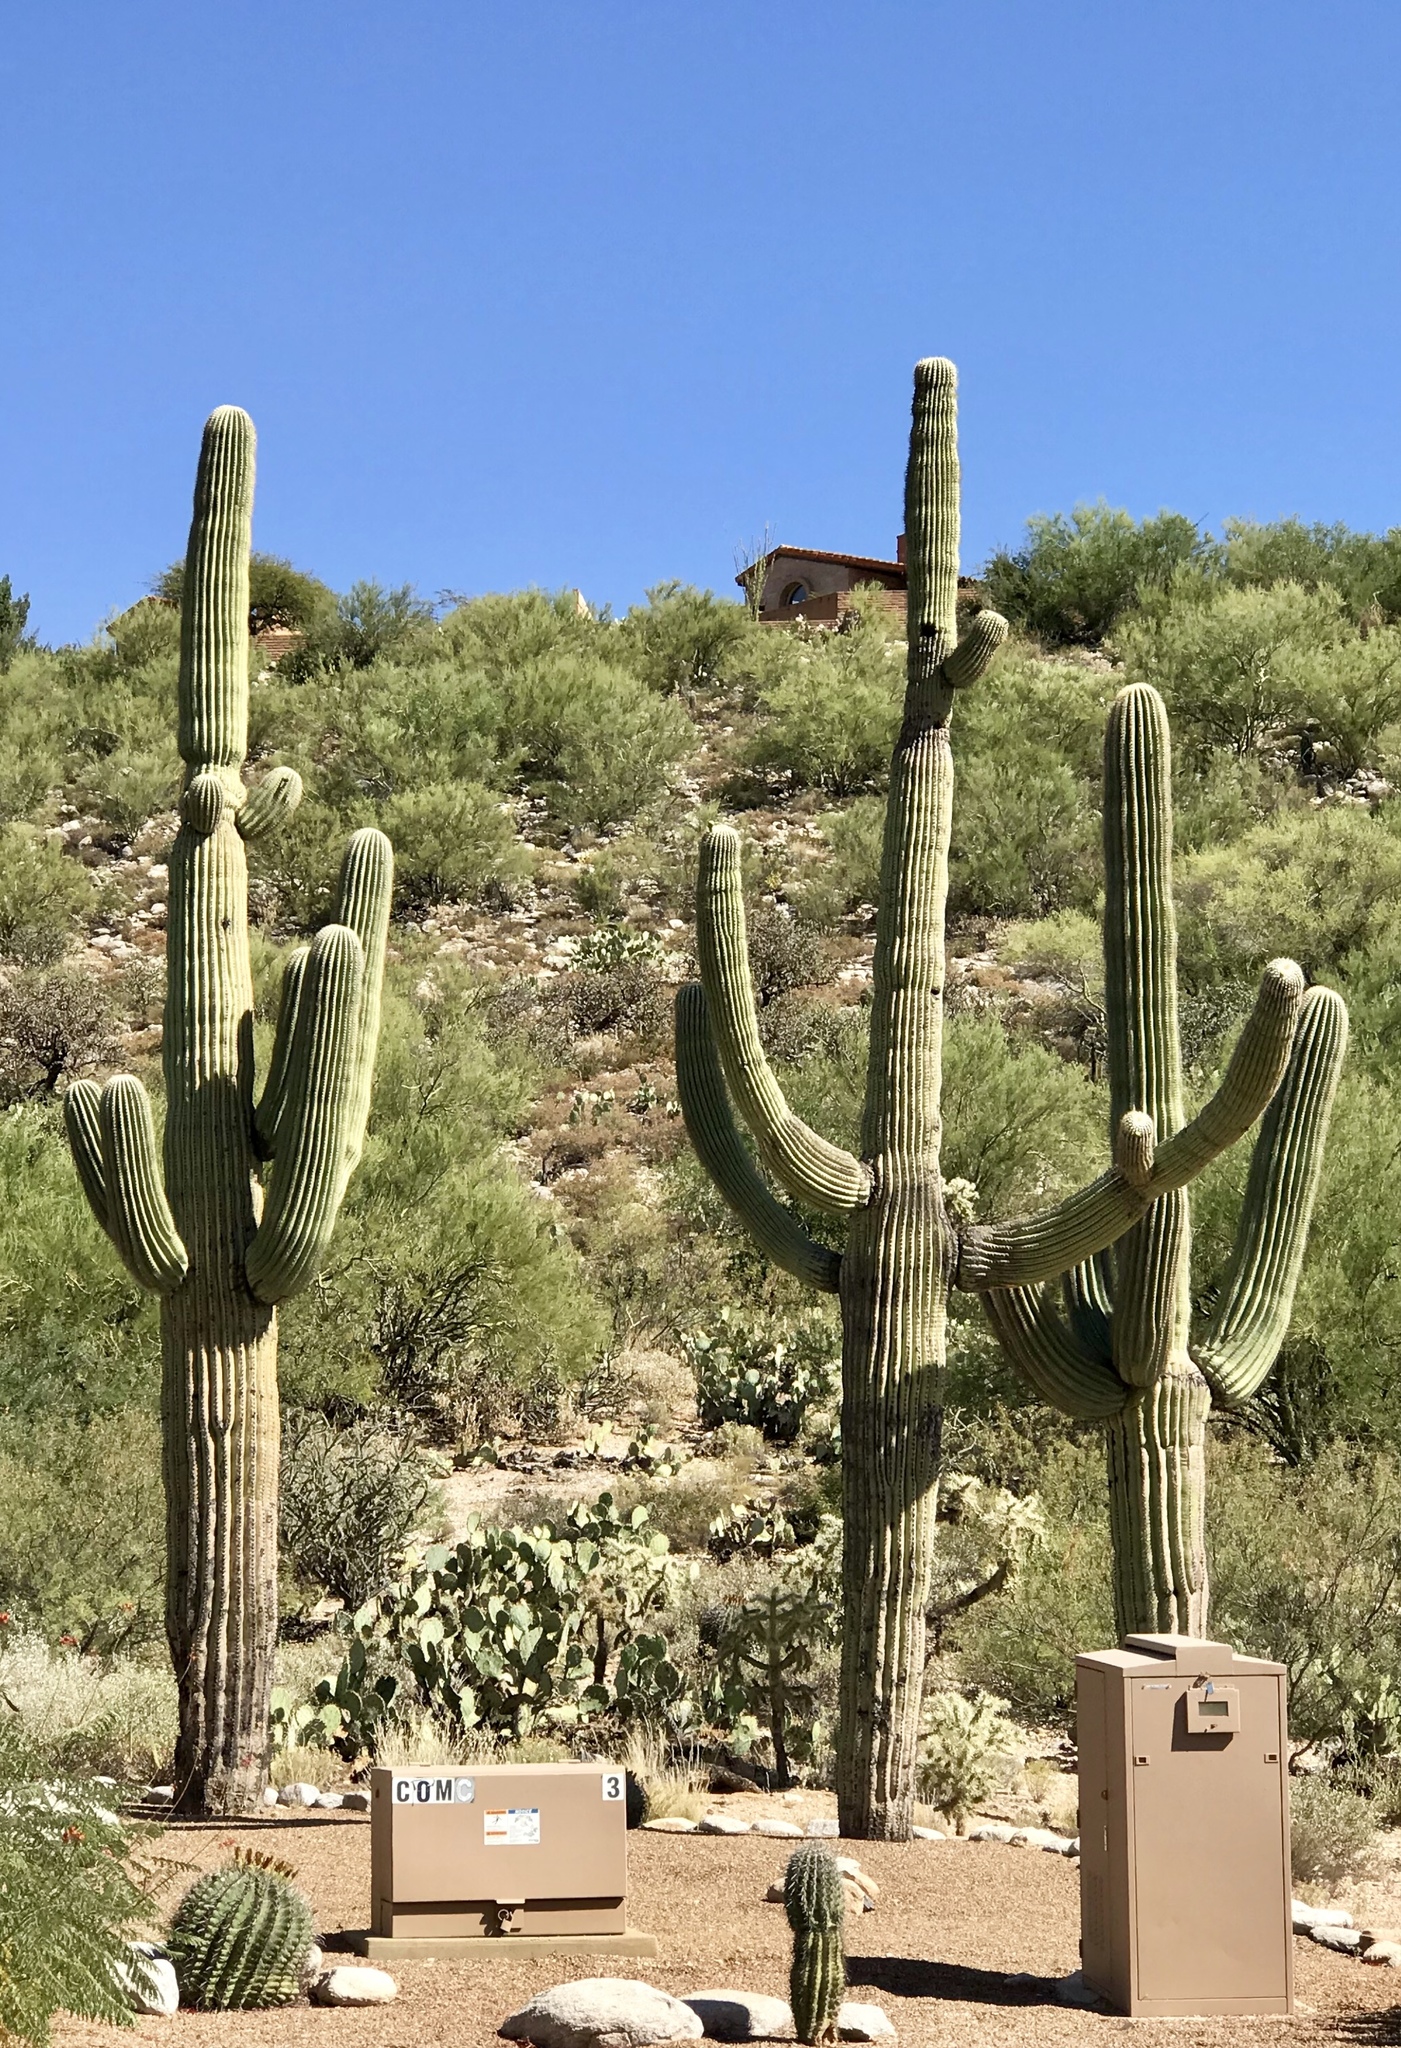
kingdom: Plantae
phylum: Tracheophyta
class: Magnoliopsida
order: Caryophyllales
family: Cactaceae
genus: Carnegiea
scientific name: Carnegiea gigantea
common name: Saguaro
